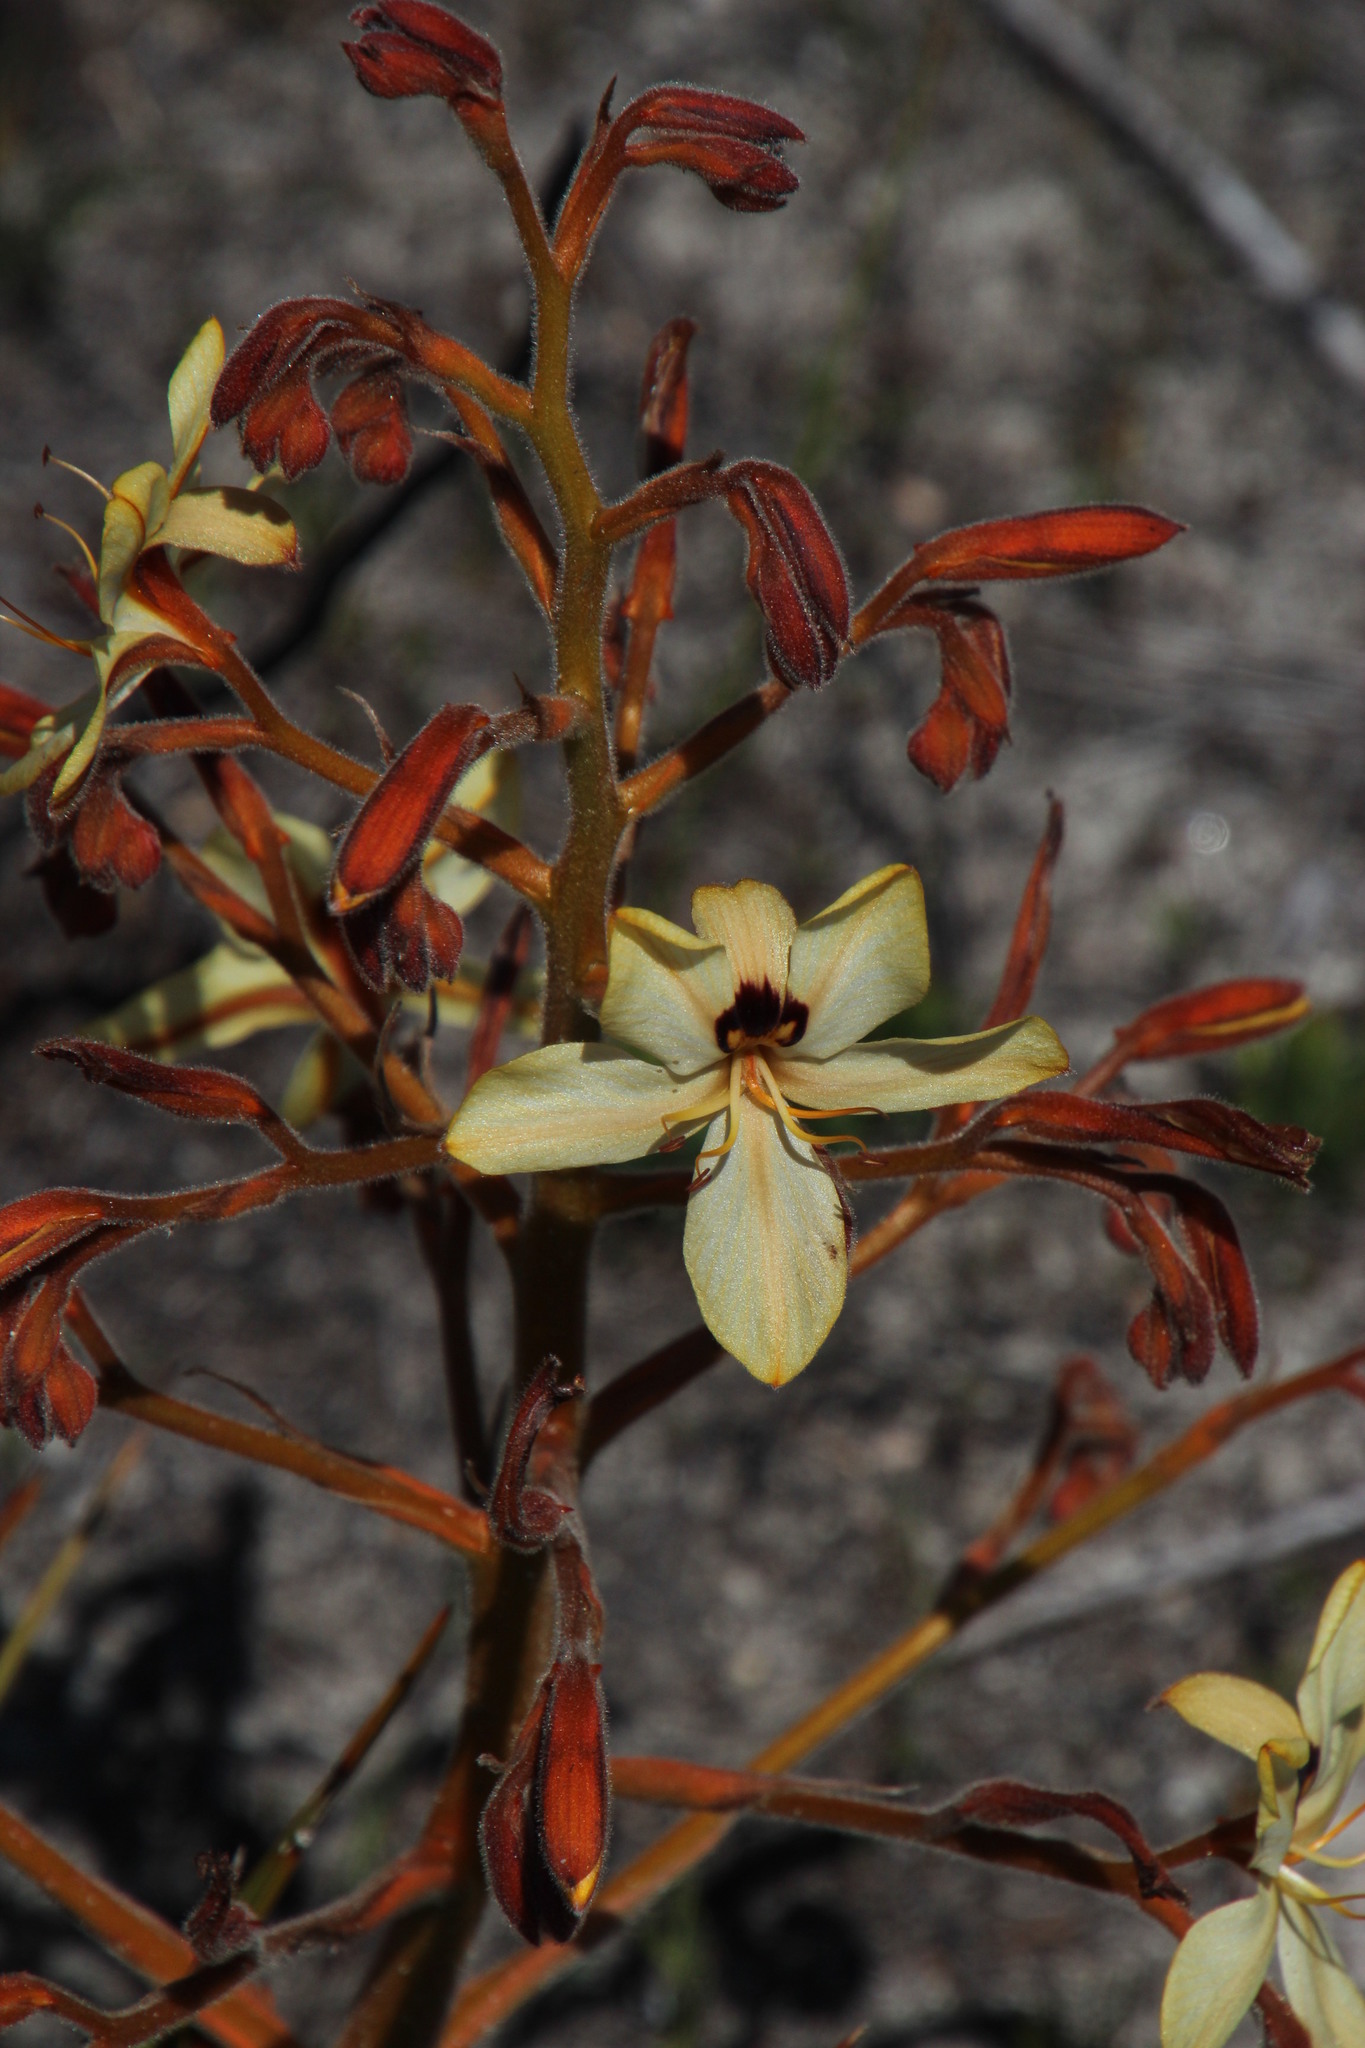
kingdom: Plantae
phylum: Tracheophyta
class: Liliopsida
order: Commelinales
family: Haemodoraceae
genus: Wachendorfia
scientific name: Wachendorfia paniculata
